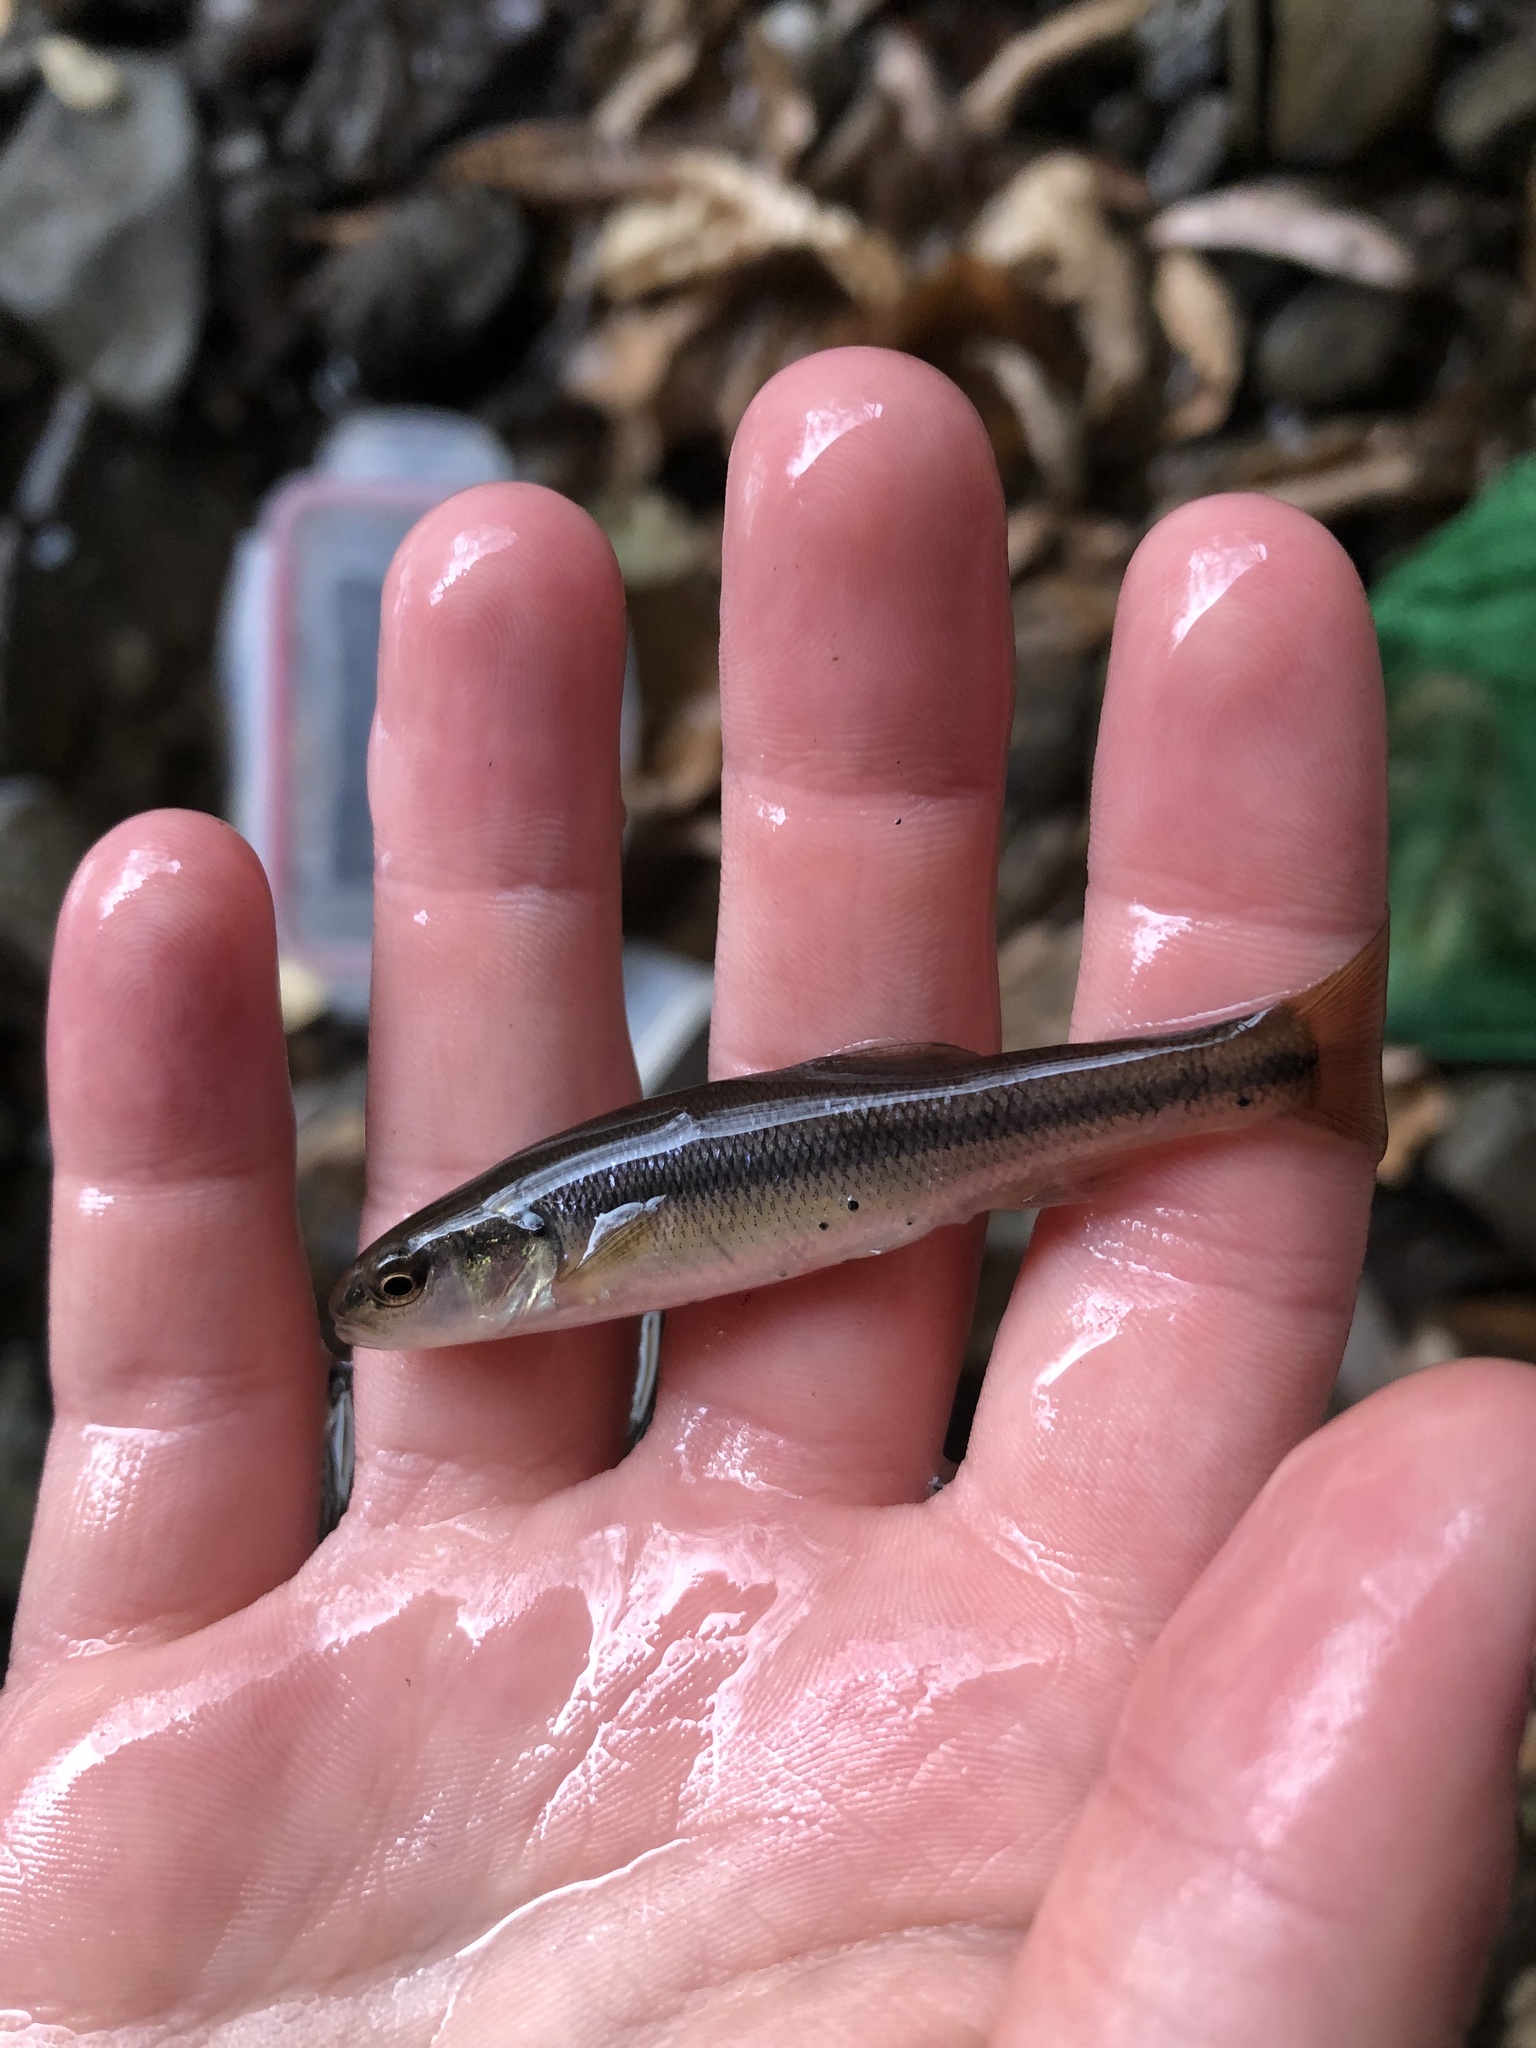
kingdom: Animalia
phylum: Chordata
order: Cypriniformes
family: Cyprinidae
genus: Semotilus
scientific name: Semotilus atromaculatus
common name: Creek chub
